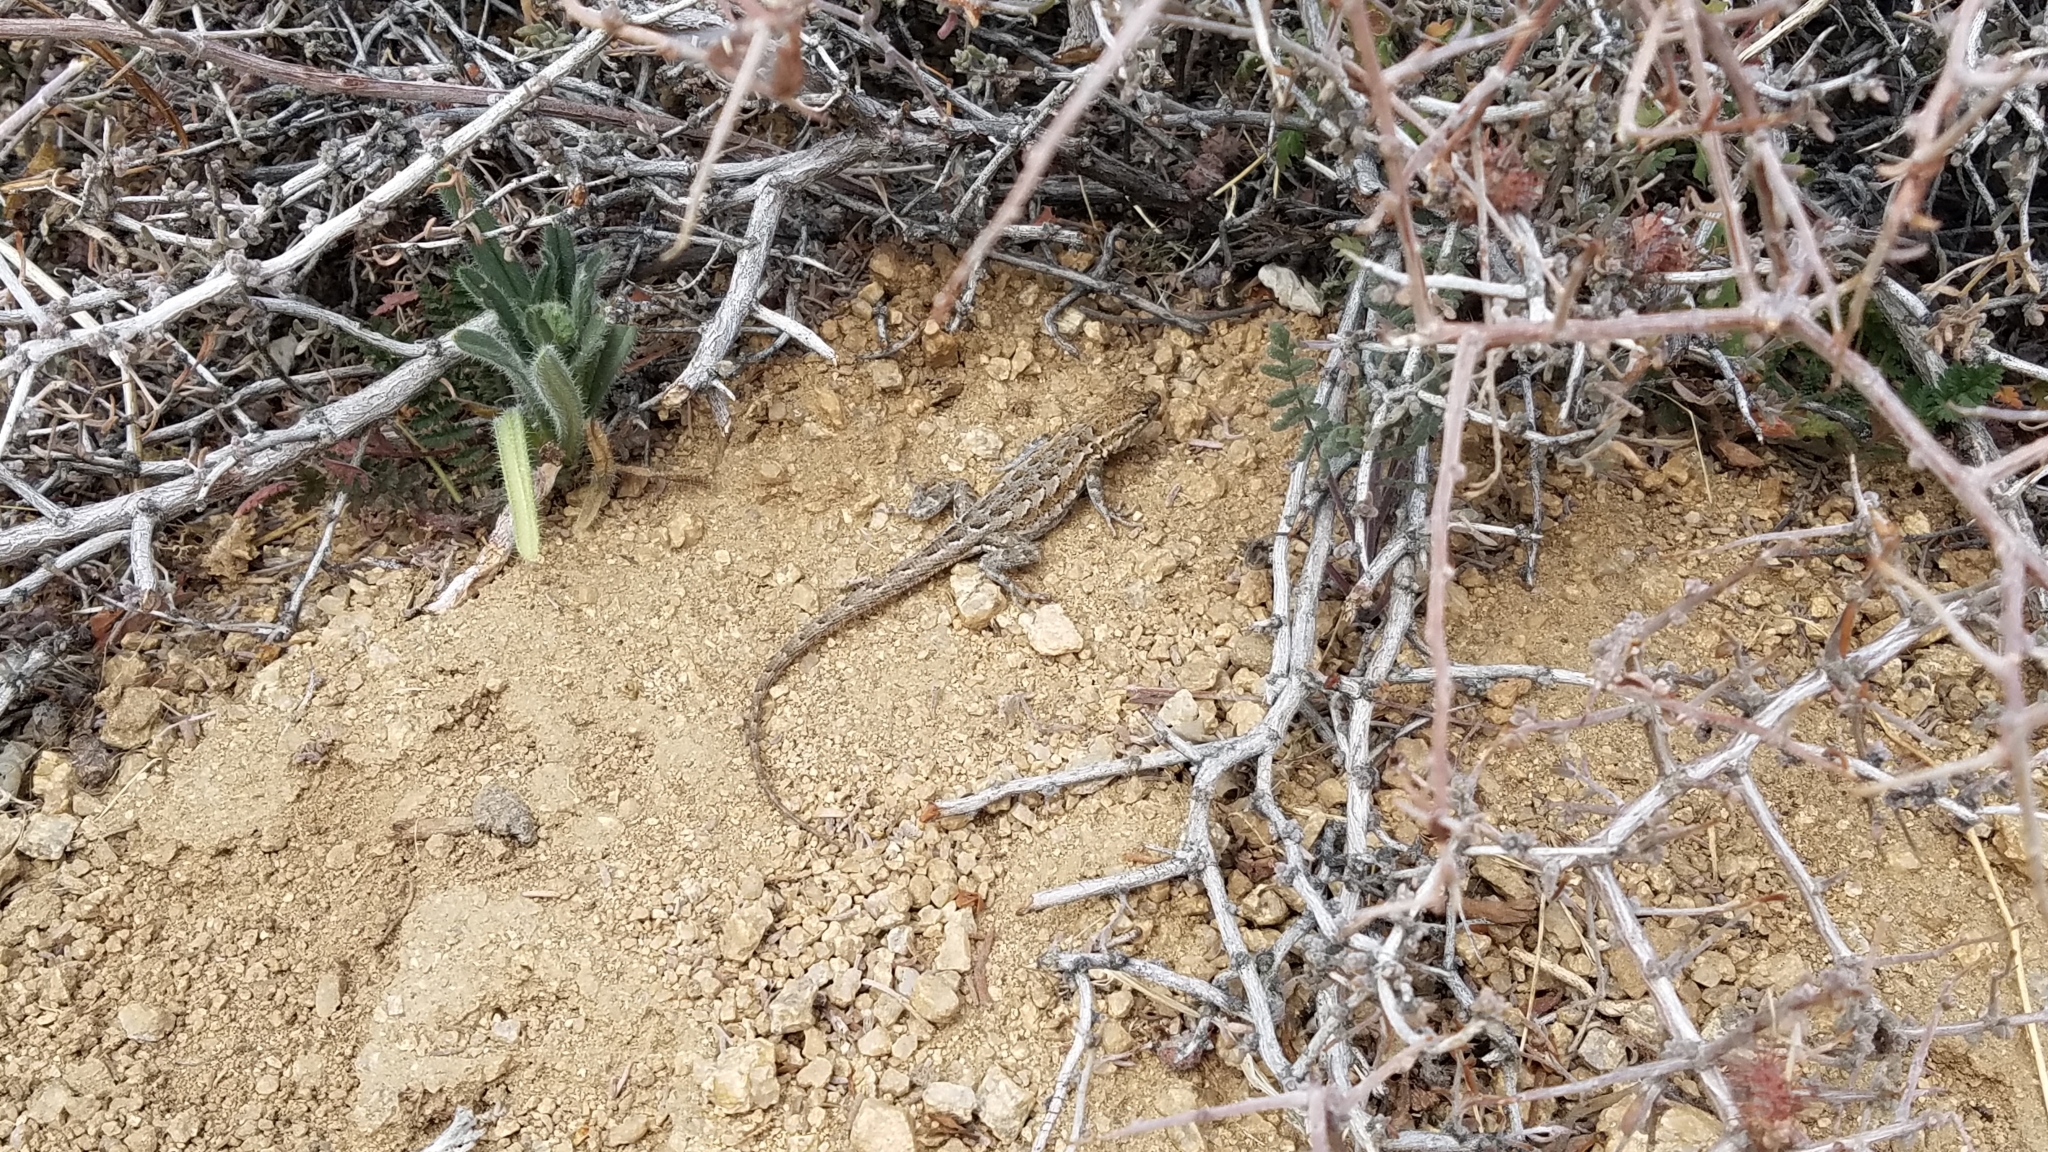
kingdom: Animalia
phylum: Chordata
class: Squamata
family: Phrynosomatidae
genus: Uta
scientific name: Uta stansburiana
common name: Side-blotched lizard
